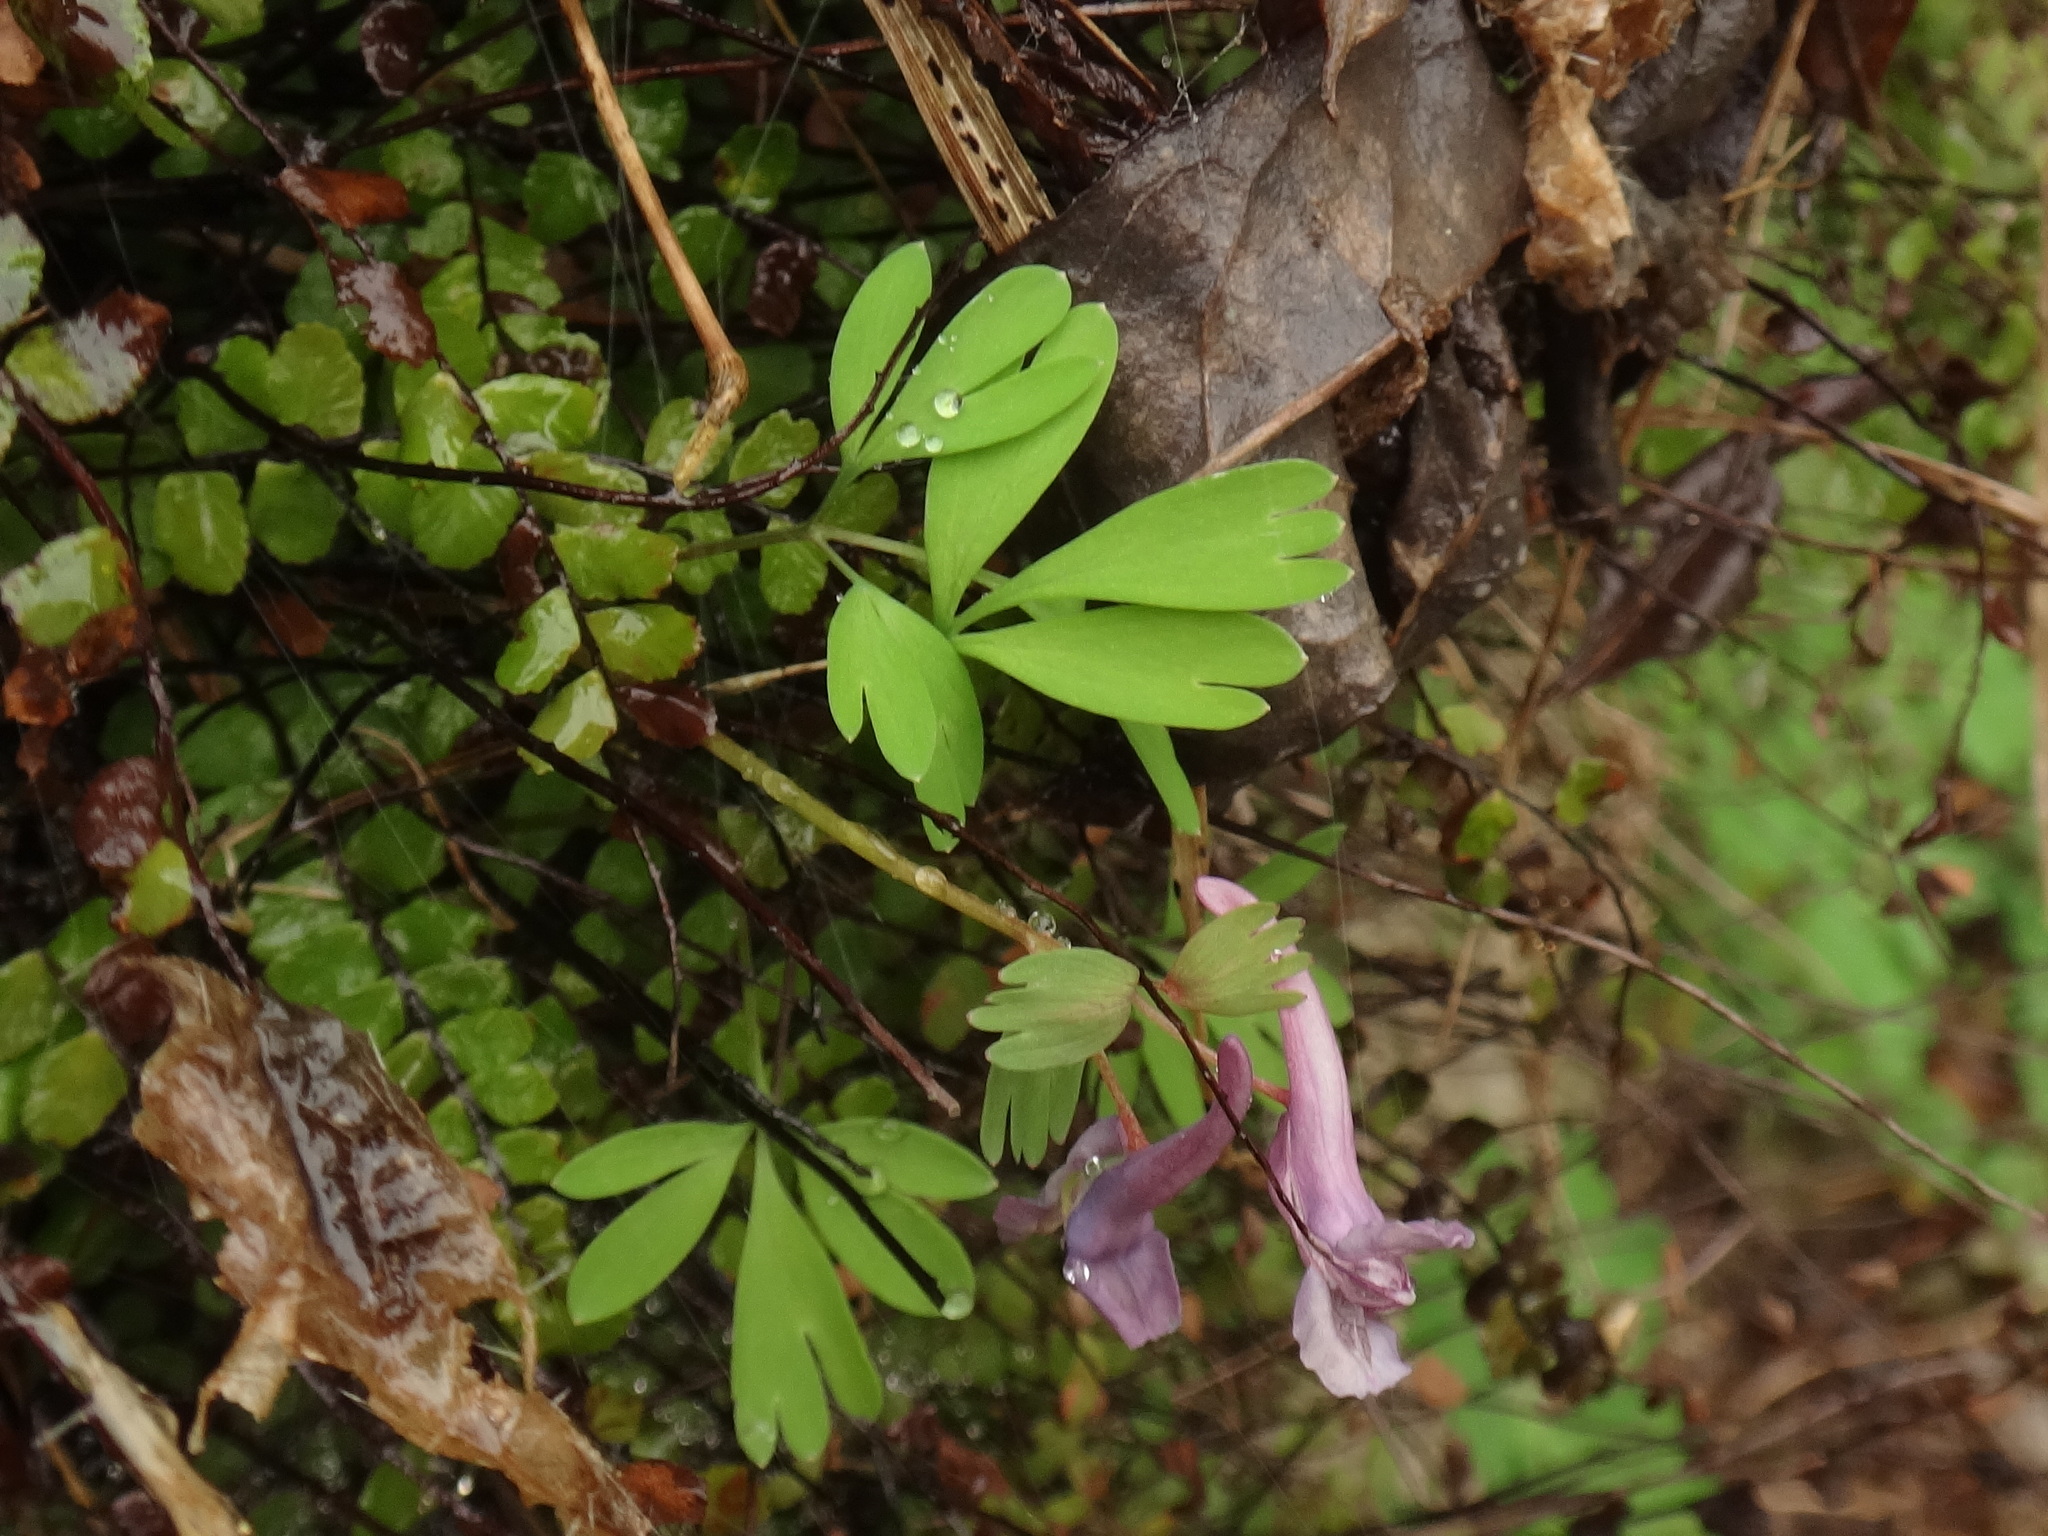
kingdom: Plantae
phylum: Tracheophyta
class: Magnoliopsida
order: Ranunculales
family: Papaveraceae
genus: Corydalis
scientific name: Corydalis solida
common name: Bird-in-a-bush
